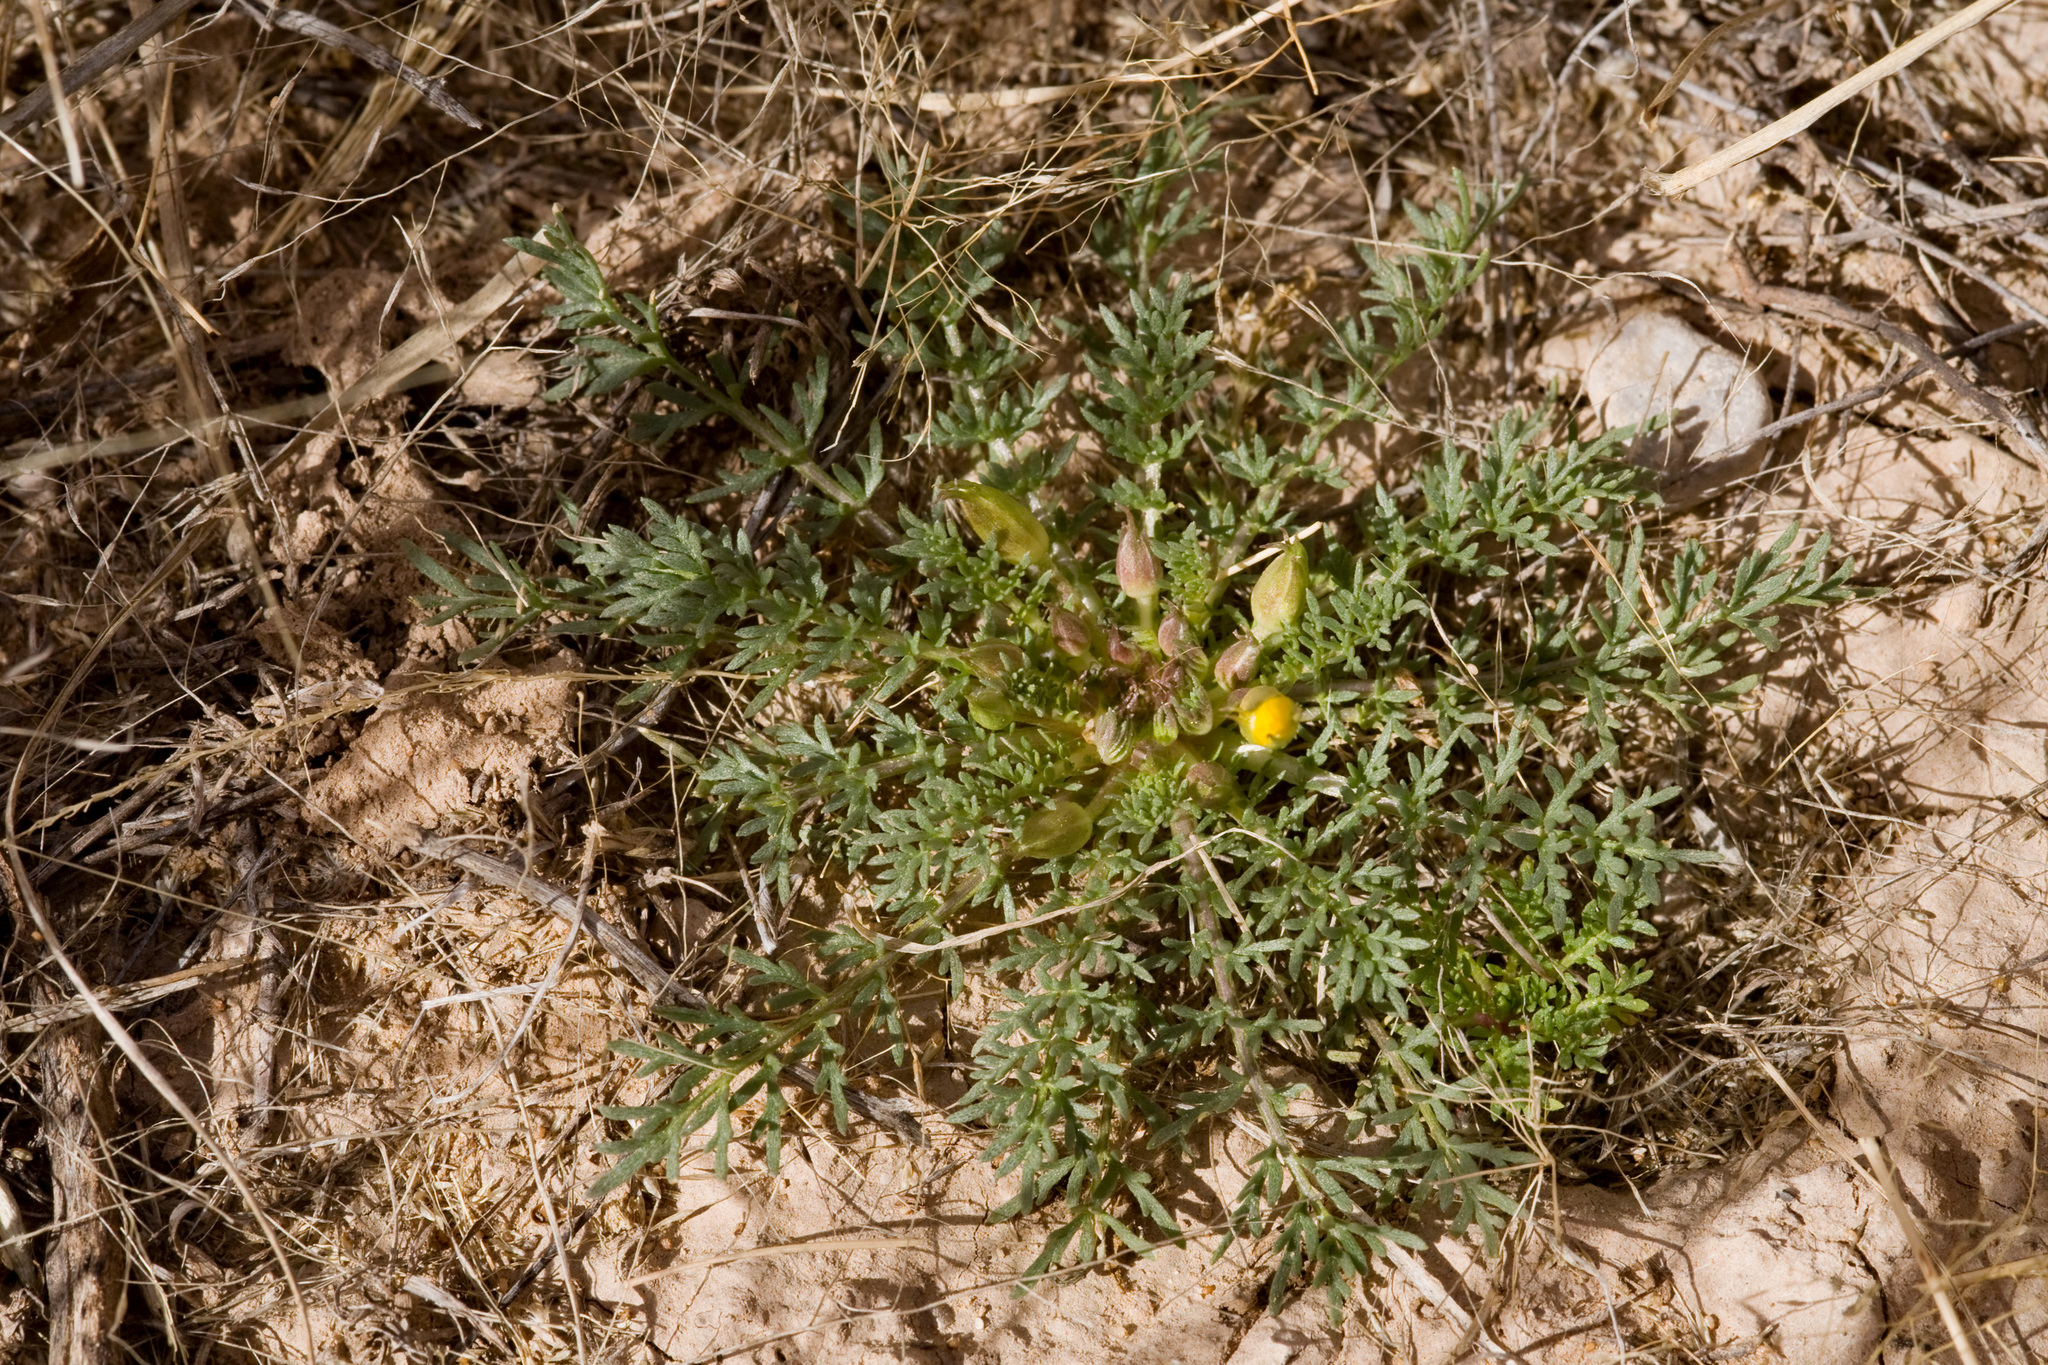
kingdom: Plantae
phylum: Tracheophyta
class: Magnoliopsida
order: Brassicales
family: Brassicaceae
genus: Selenia
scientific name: Selenia dissecta
